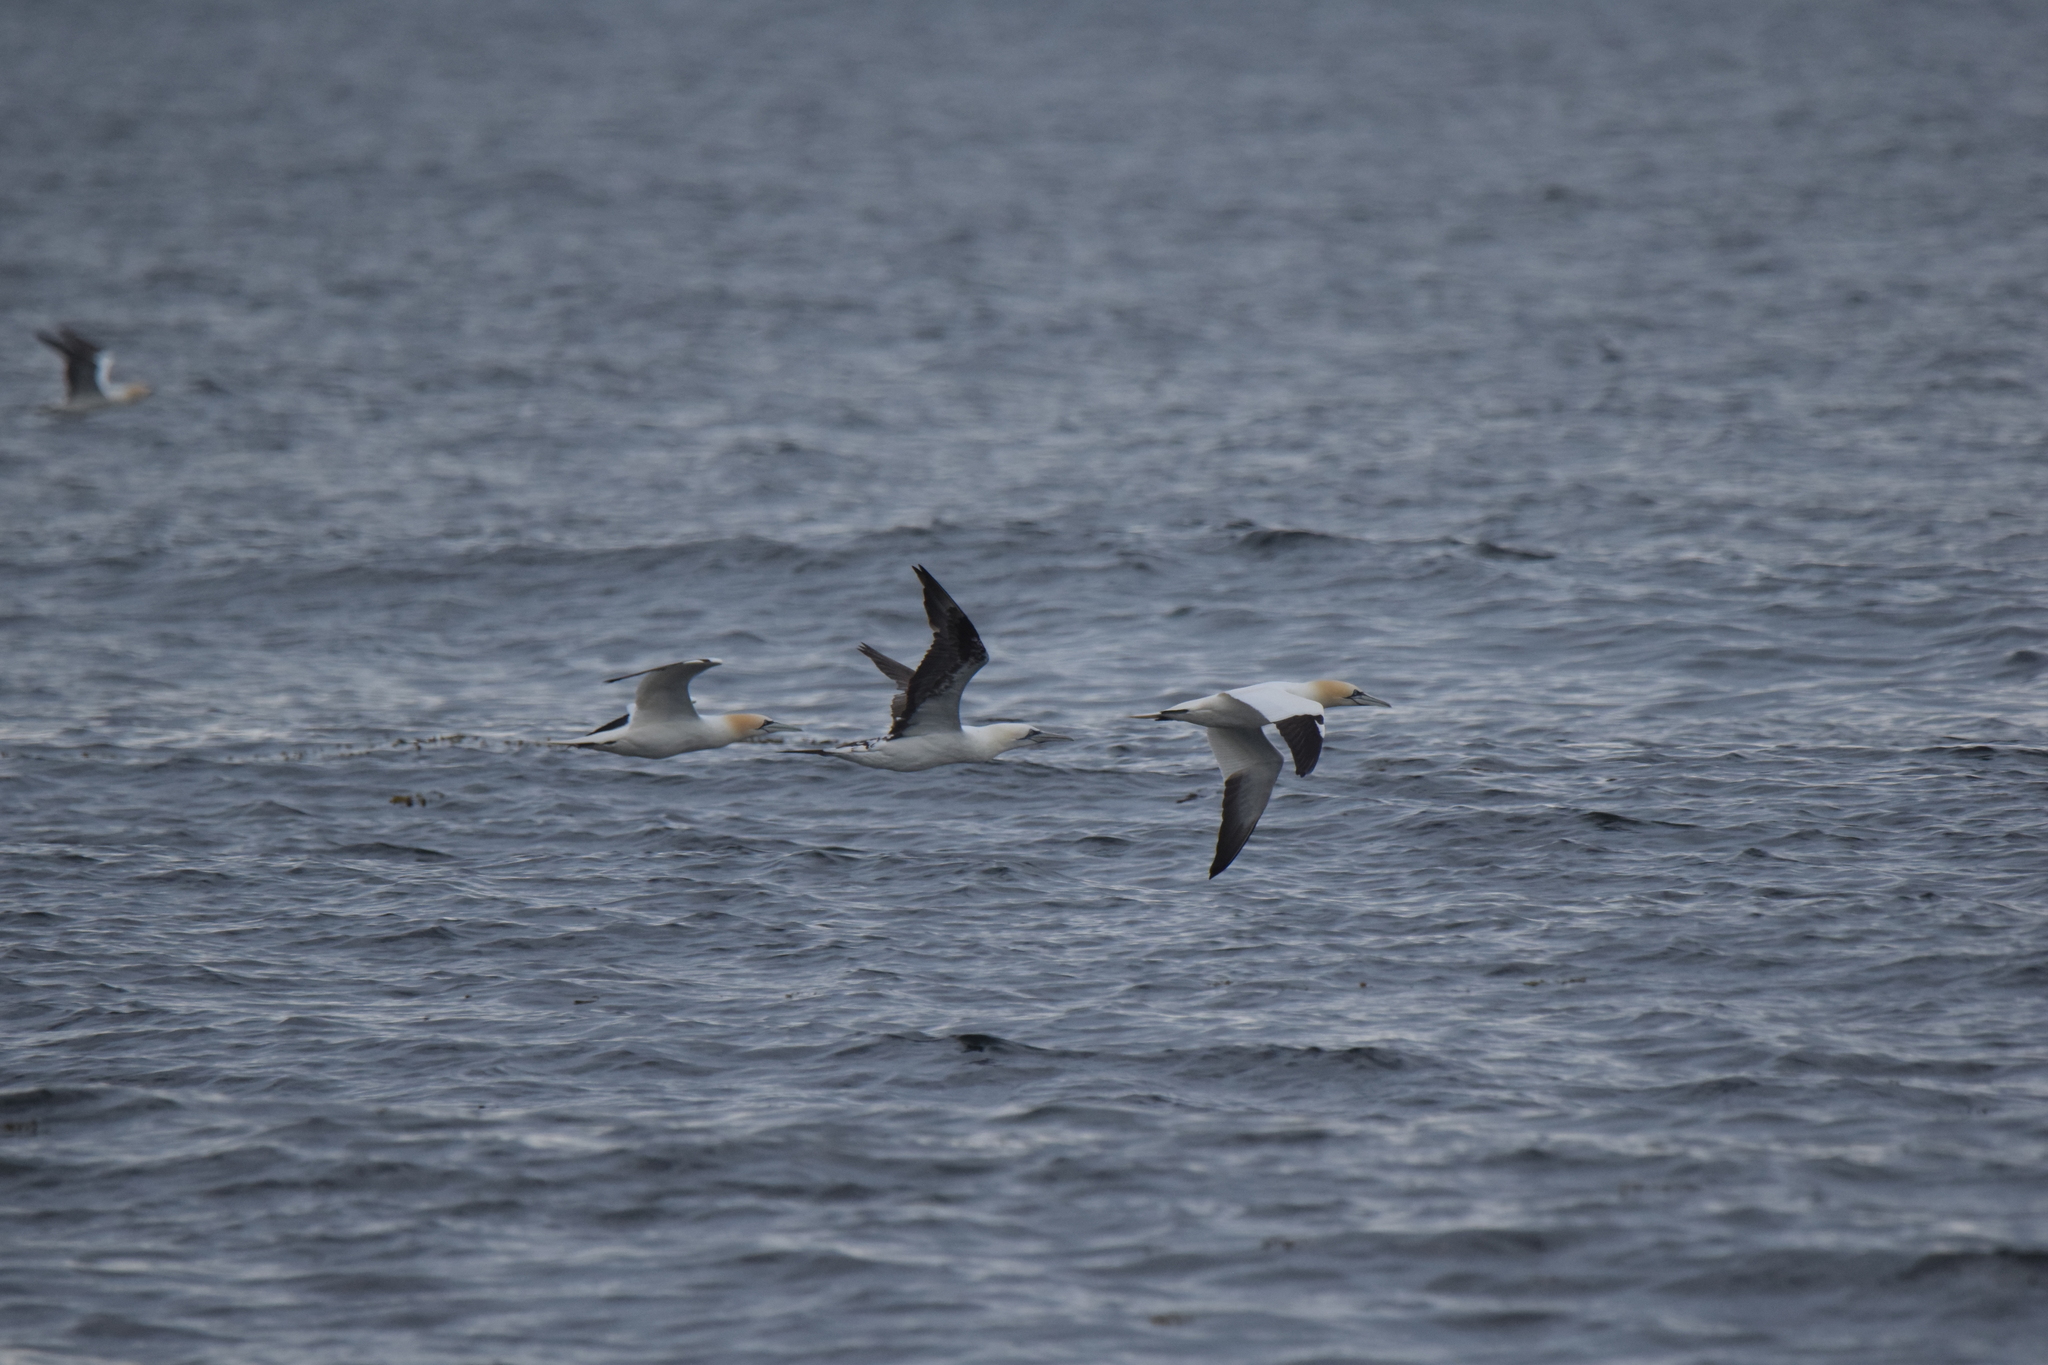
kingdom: Animalia
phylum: Chordata
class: Aves
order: Suliformes
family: Sulidae
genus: Morus
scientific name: Morus bassanus
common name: Northern gannet
